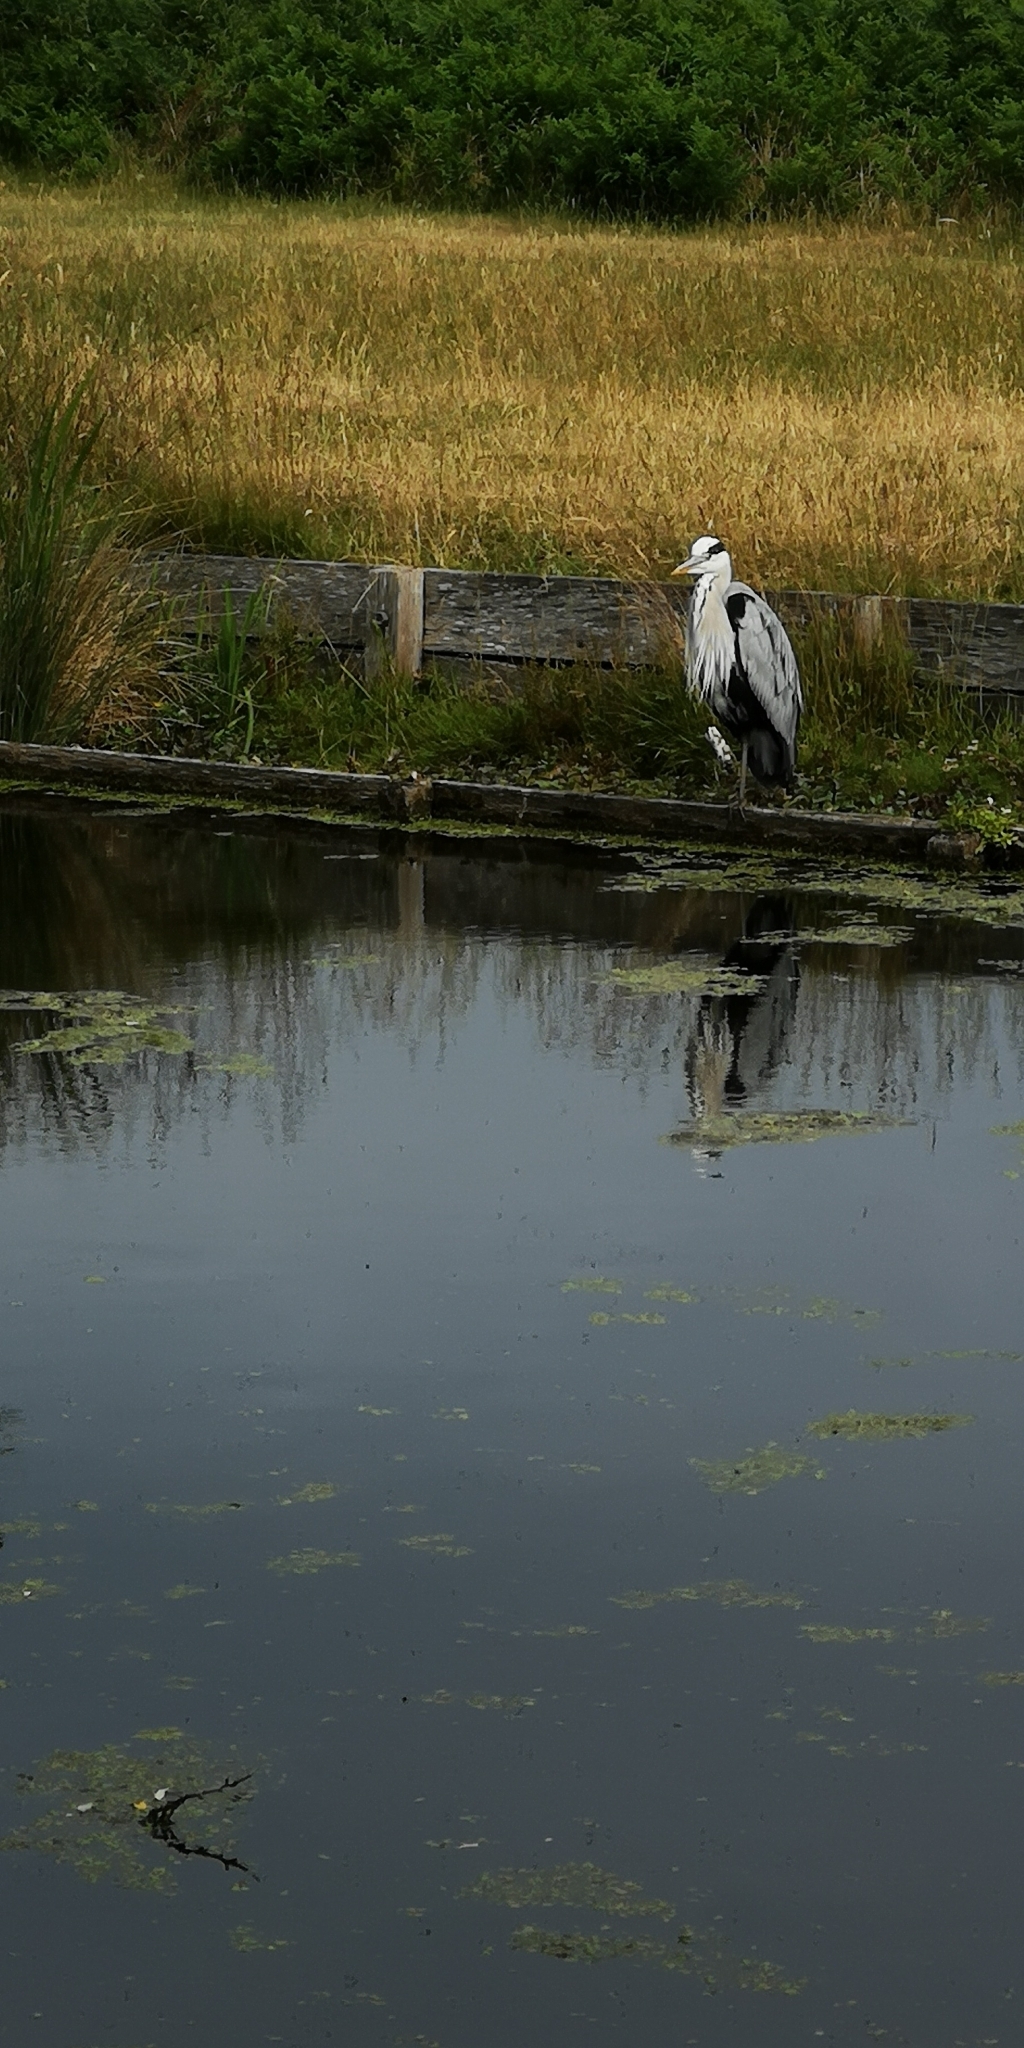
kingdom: Animalia
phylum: Chordata
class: Aves
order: Pelecaniformes
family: Ardeidae
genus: Ardea
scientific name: Ardea cinerea
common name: Grey heron
